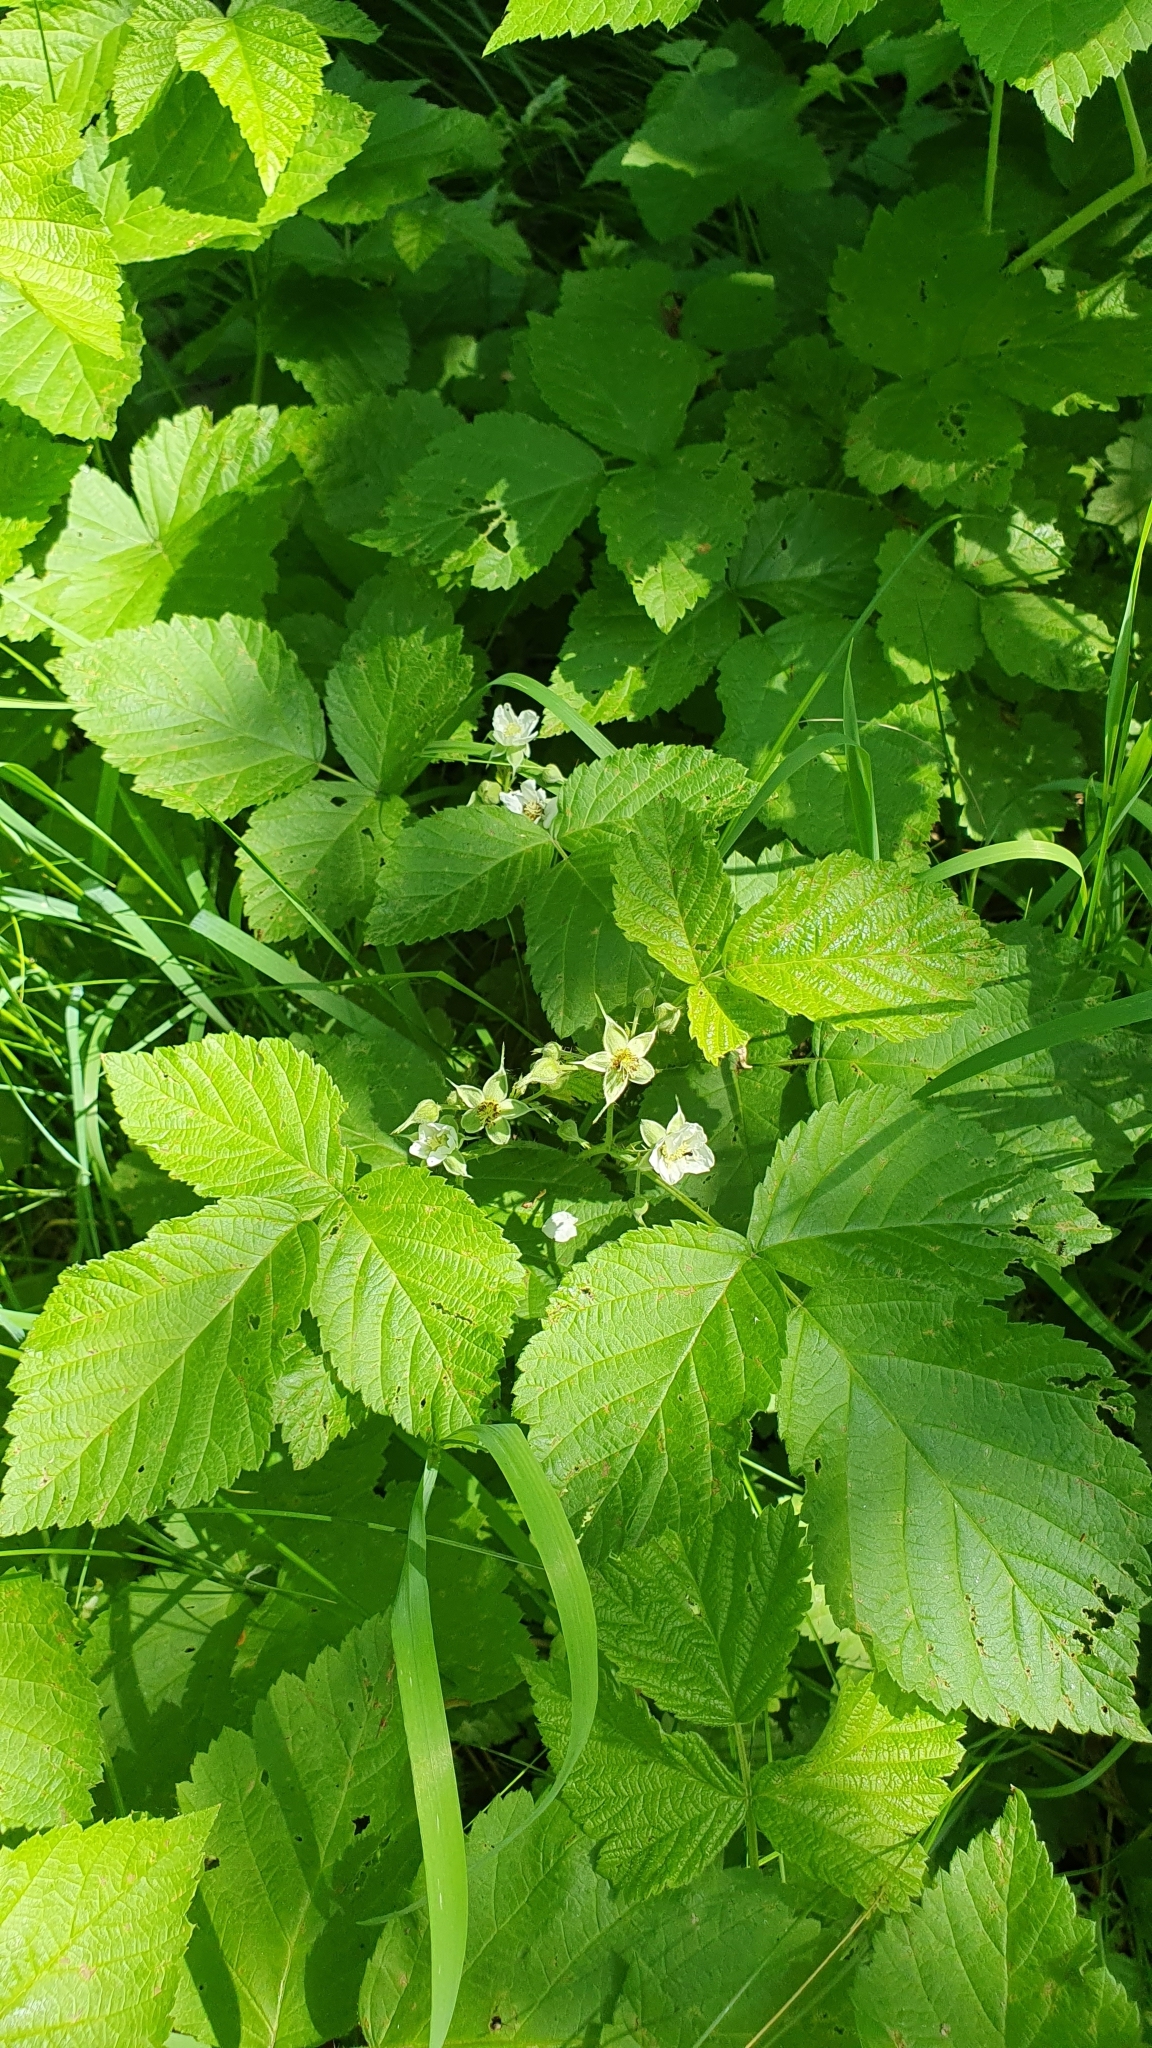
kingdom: Plantae
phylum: Tracheophyta
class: Magnoliopsida
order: Rosales
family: Rosaceae
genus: Rubus
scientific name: Rubus caesius
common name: Dewberry
